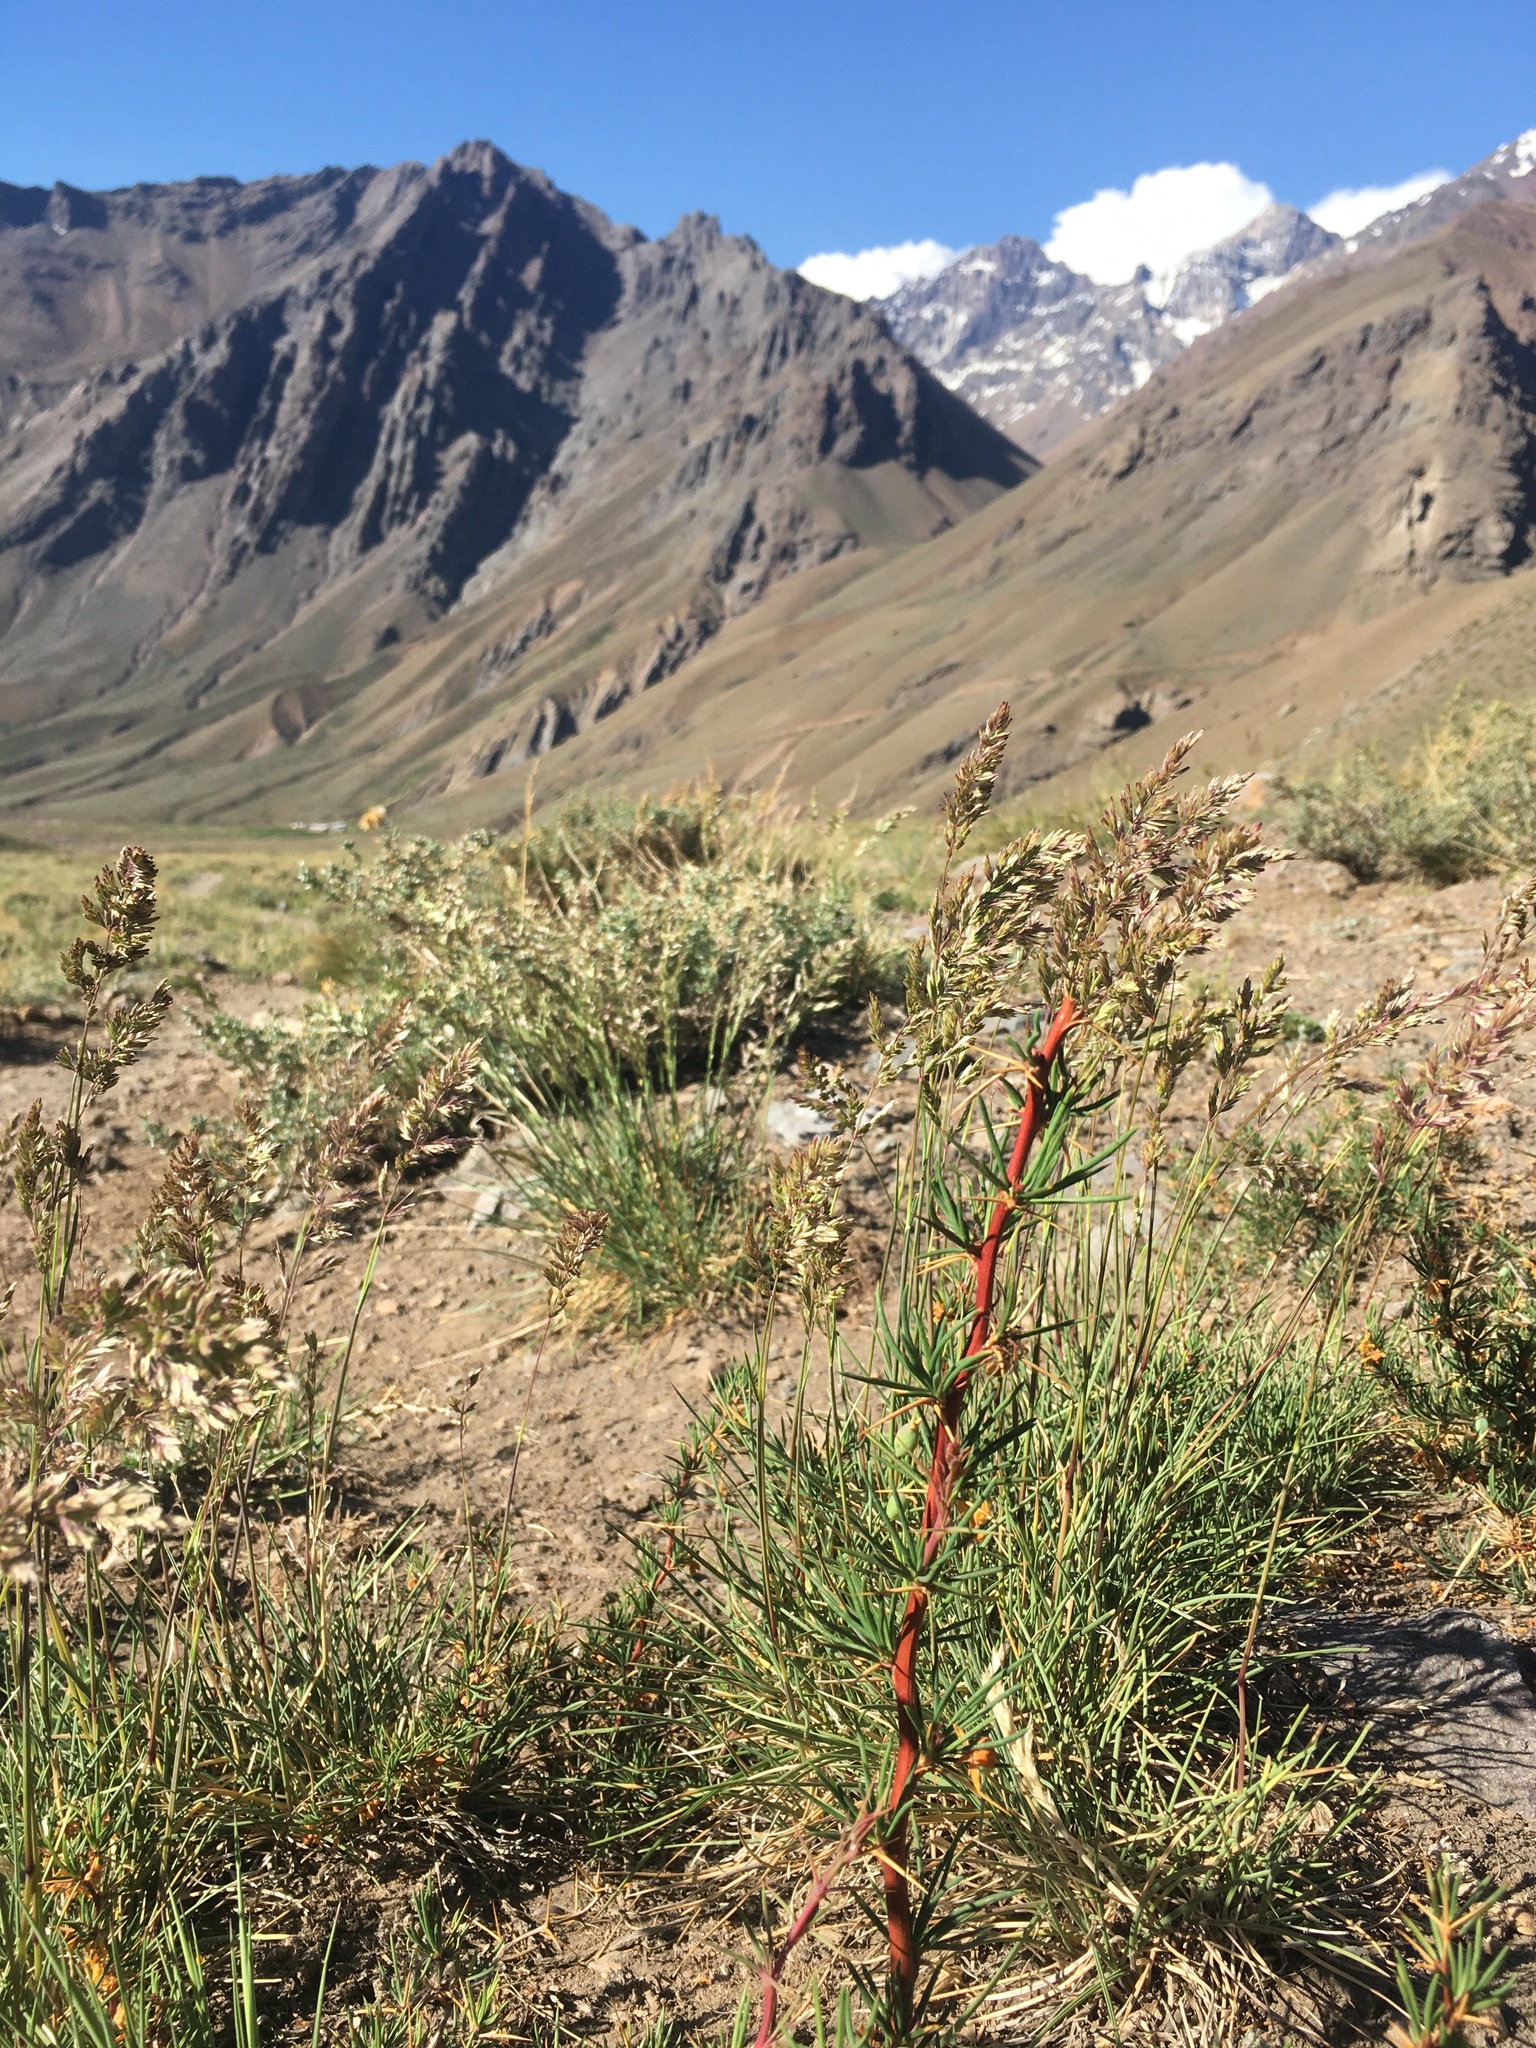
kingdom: Plantae
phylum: Tracheophyta
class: Magnoliopsida
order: Ranunculales
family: Berberidaceae
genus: Berberis
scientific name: Berberis empetrifolia
